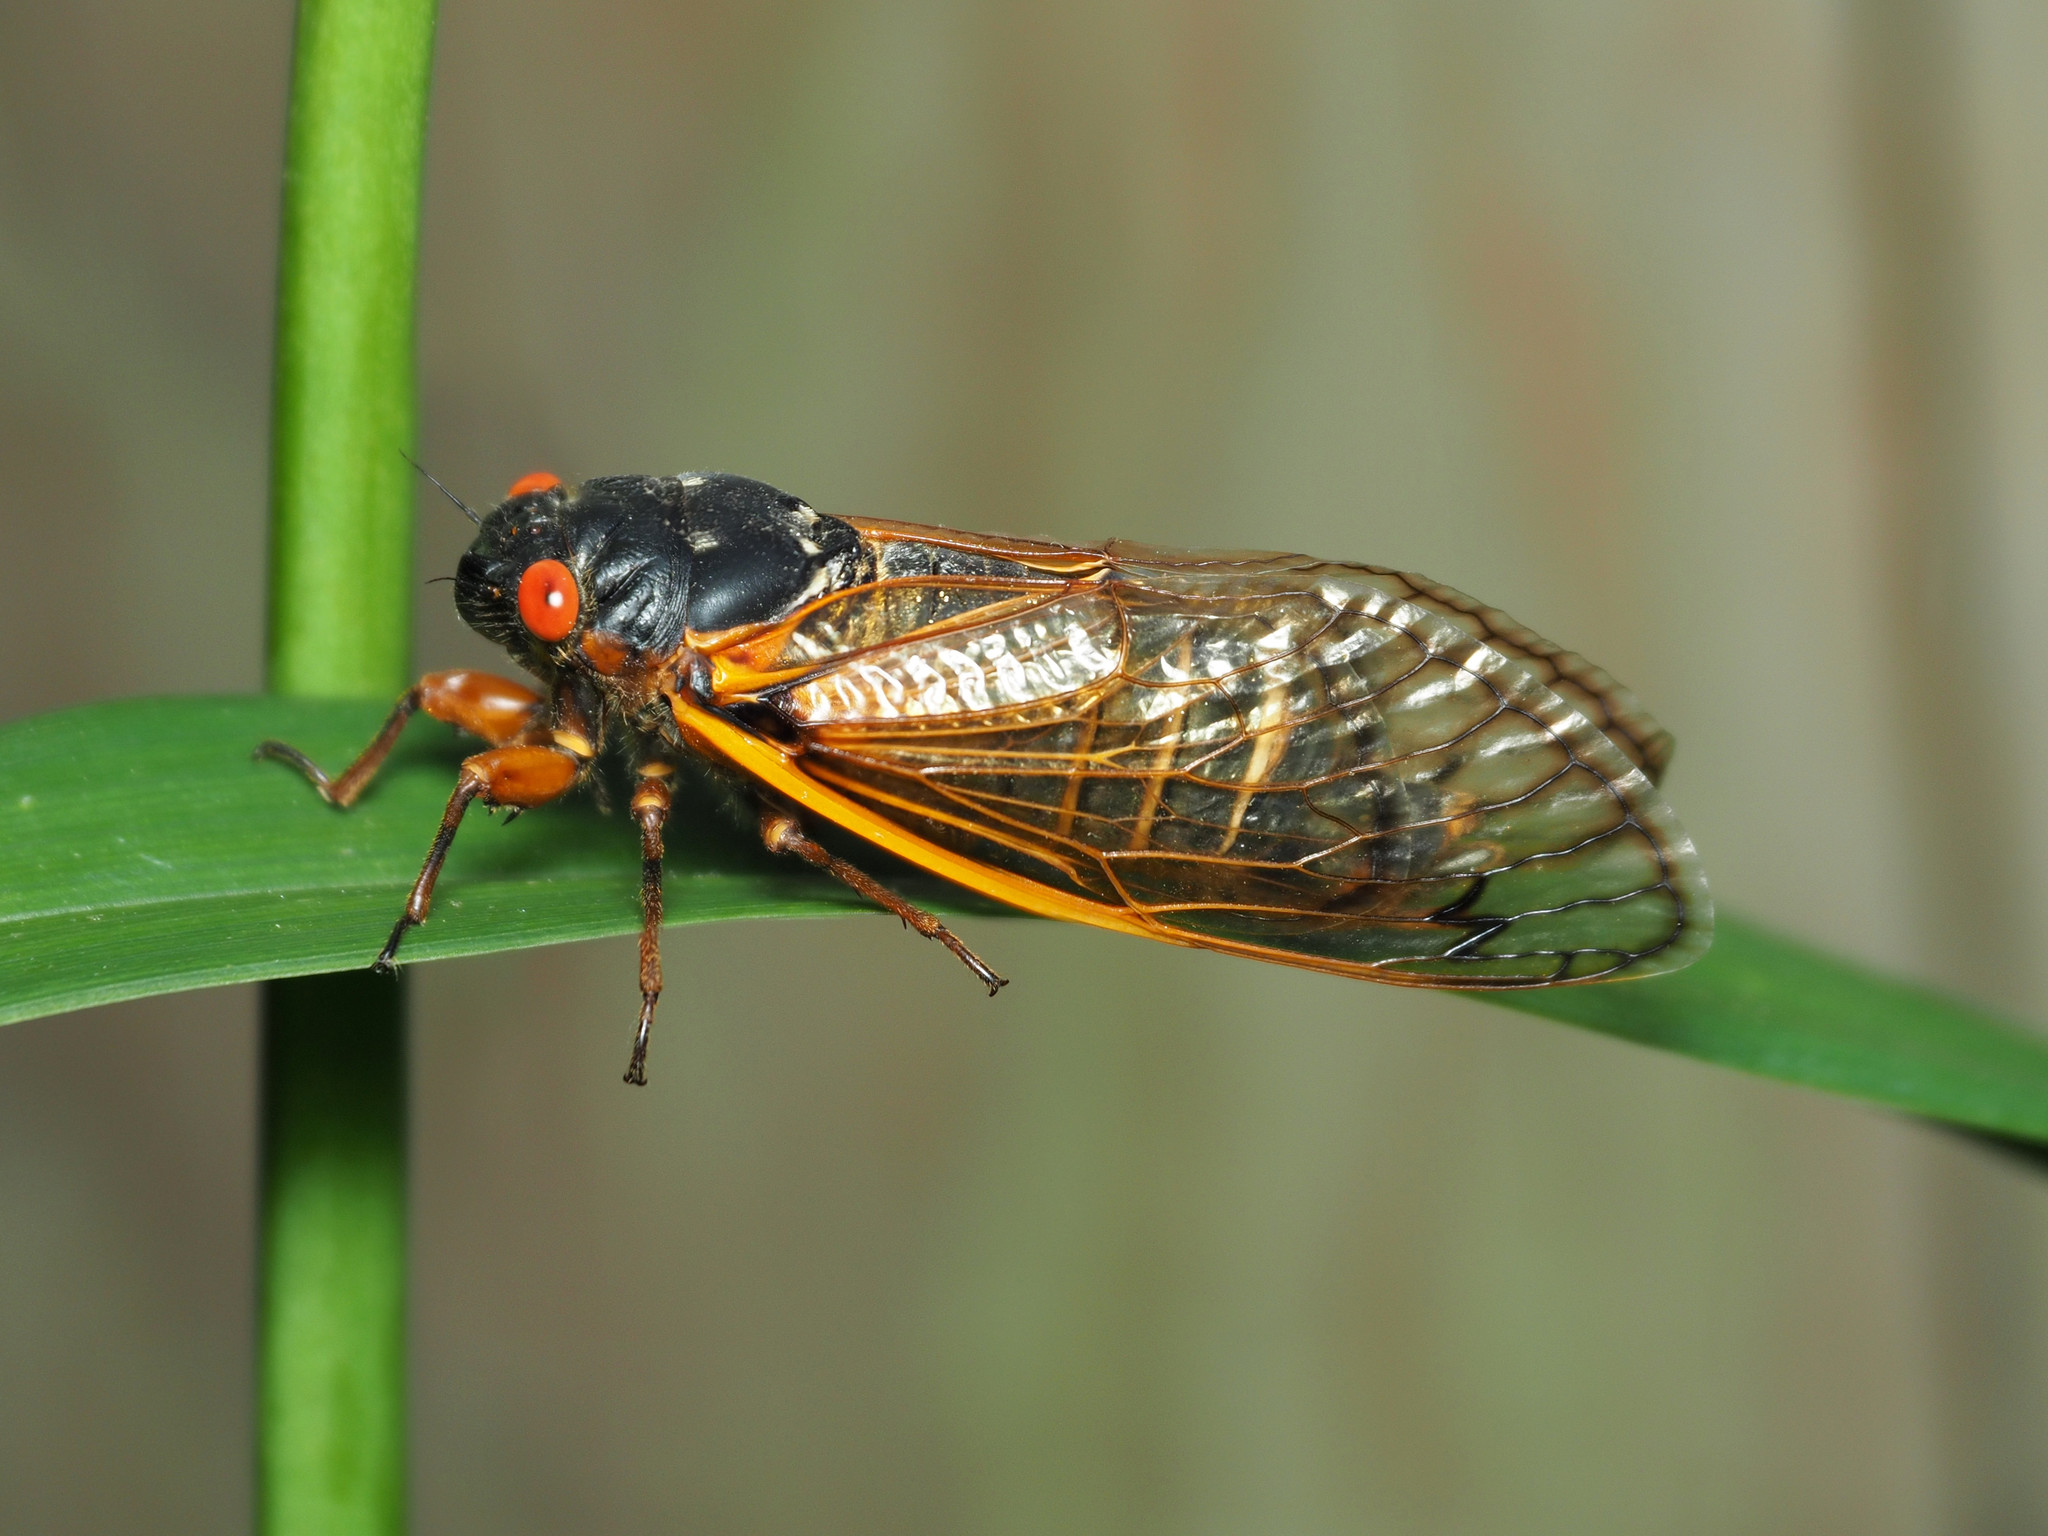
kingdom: Animalia
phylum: Arthropoda
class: Insecta
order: Hemiptera
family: Cicadidae
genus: Magicicada
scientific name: Magicicada septendecim
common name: Periodical cicada
